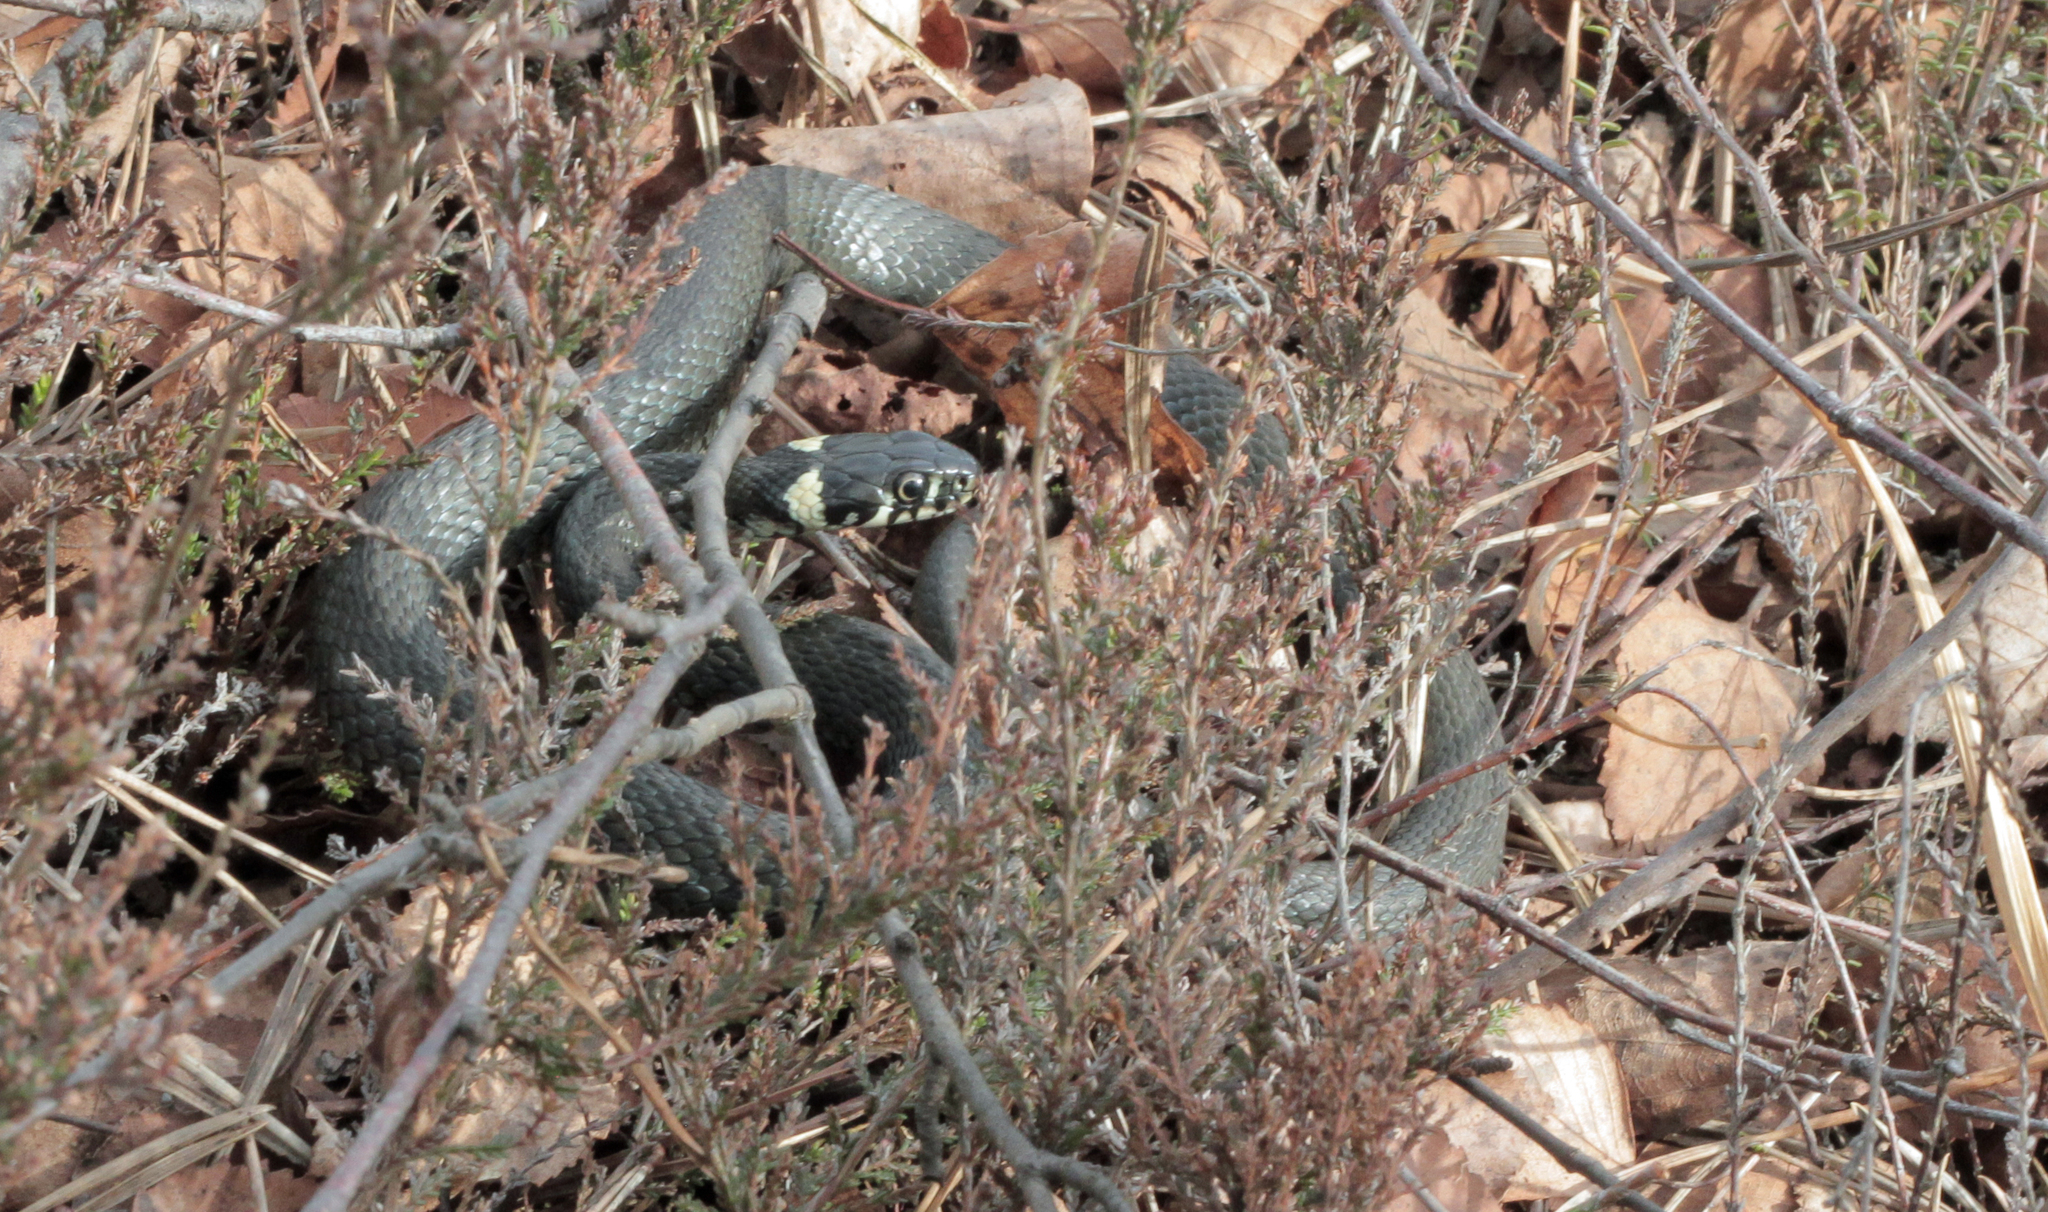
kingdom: Animalia
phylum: Chordata
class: Squamata
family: Colubridae
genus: Natrix
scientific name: Natrix natrix
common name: Grass snake
